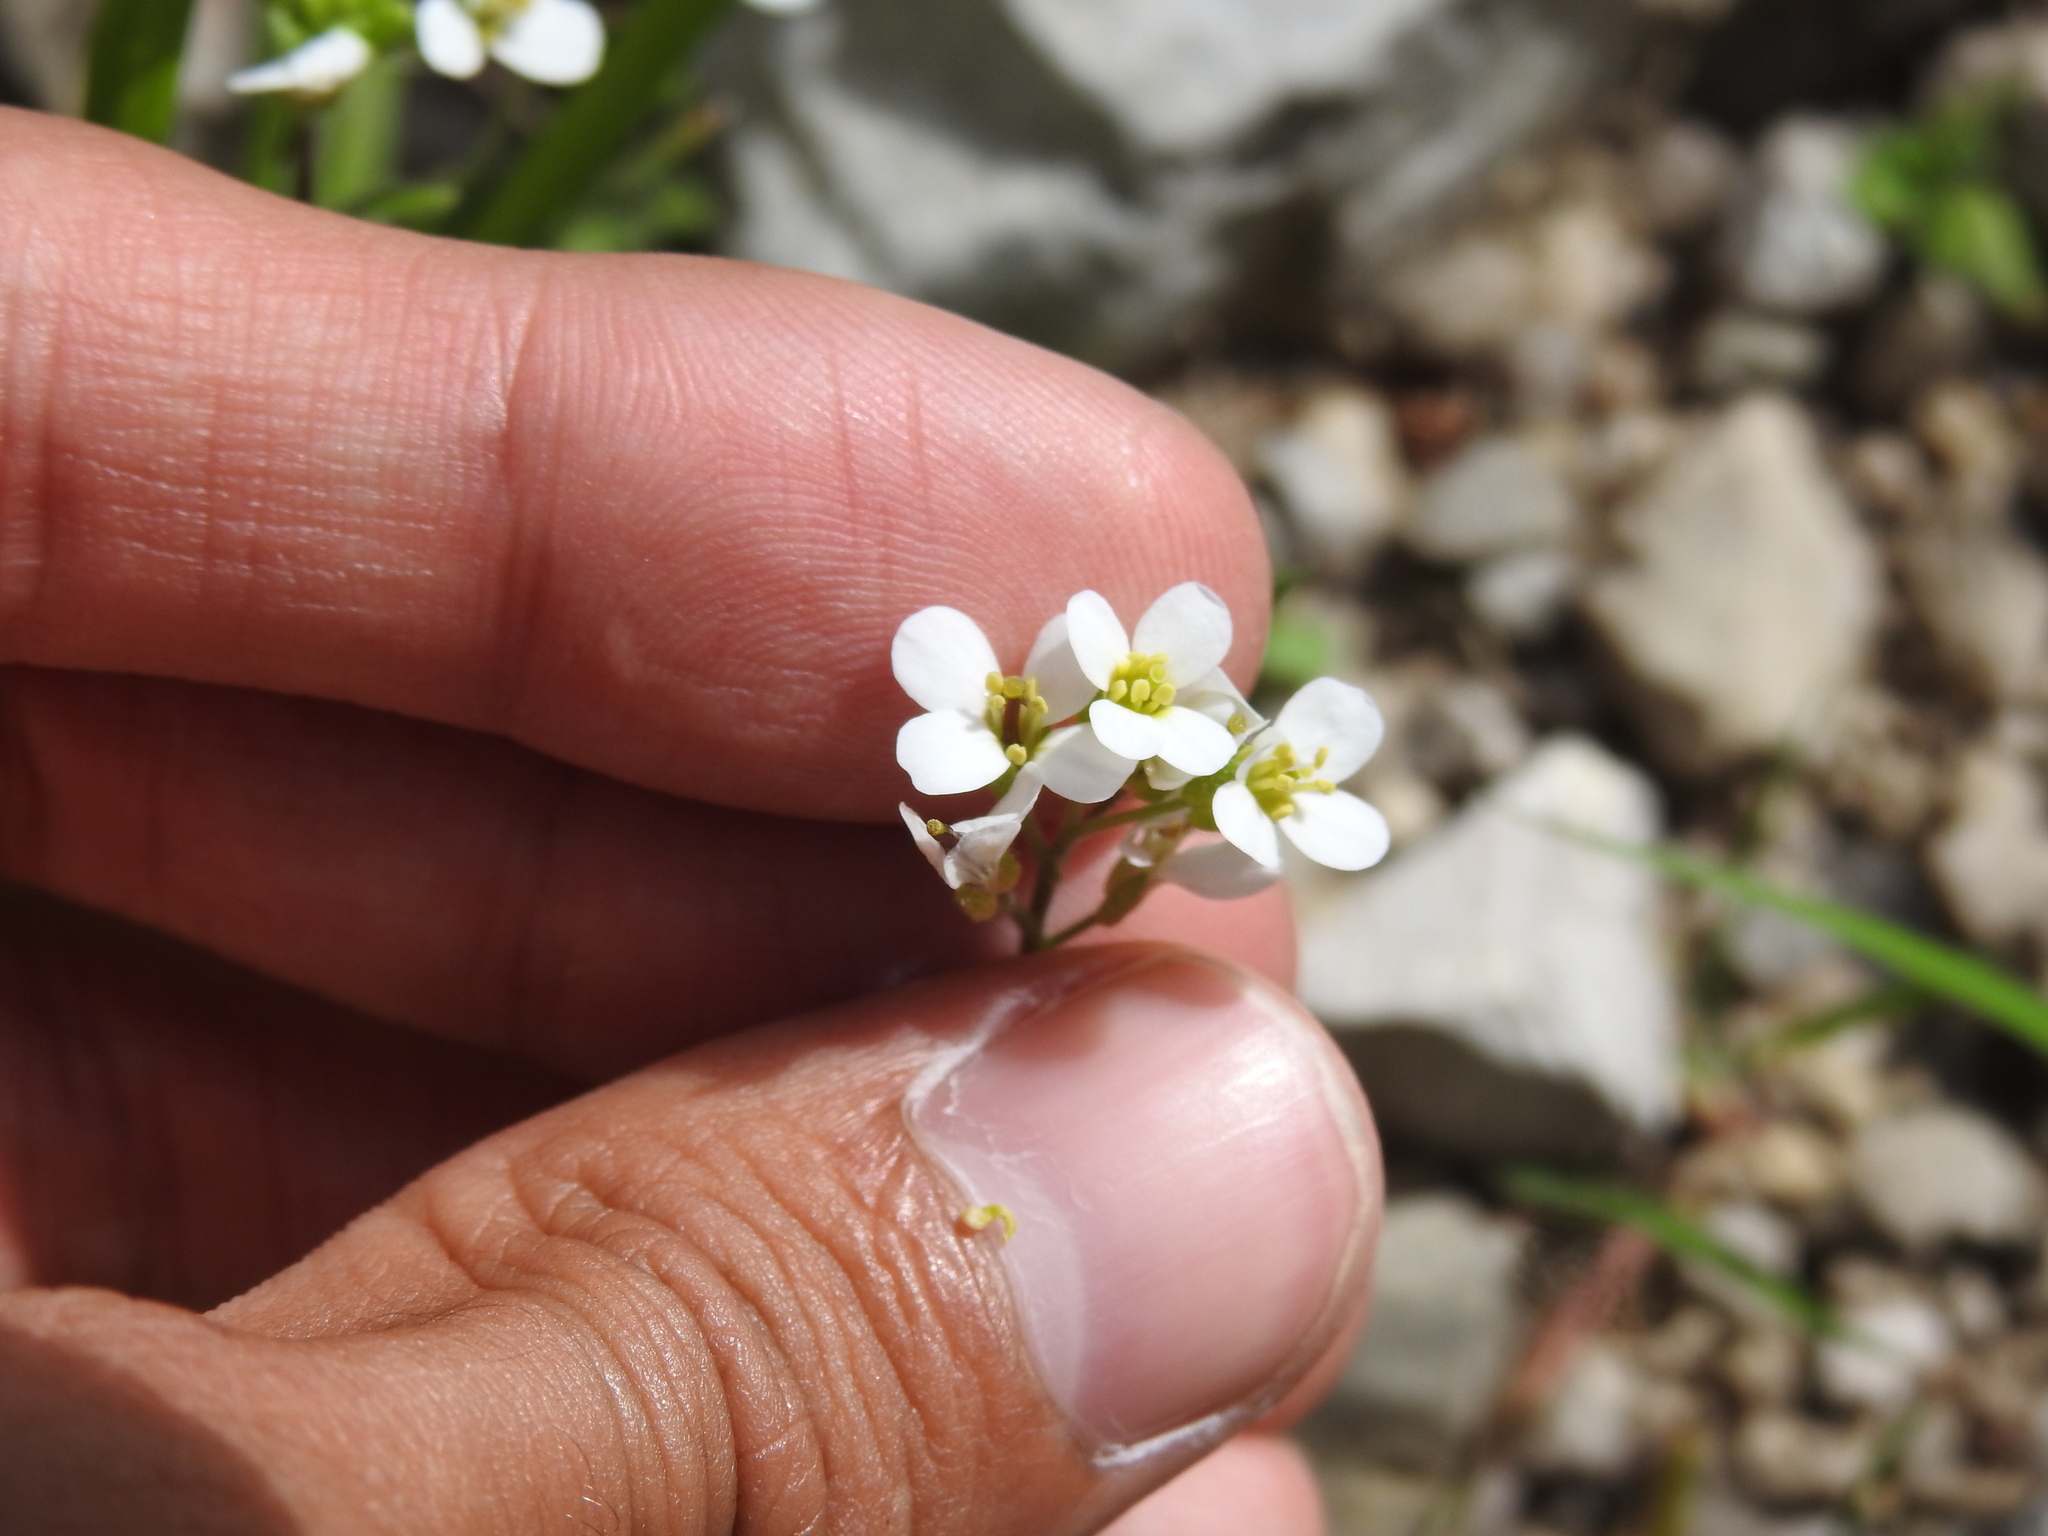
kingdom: Plantae
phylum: Tracheophyta
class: Magnoliopsida
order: Brassicales
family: Brassicaceae
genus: Arabis
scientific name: Arabis alpina
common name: Alpine rock-cress
